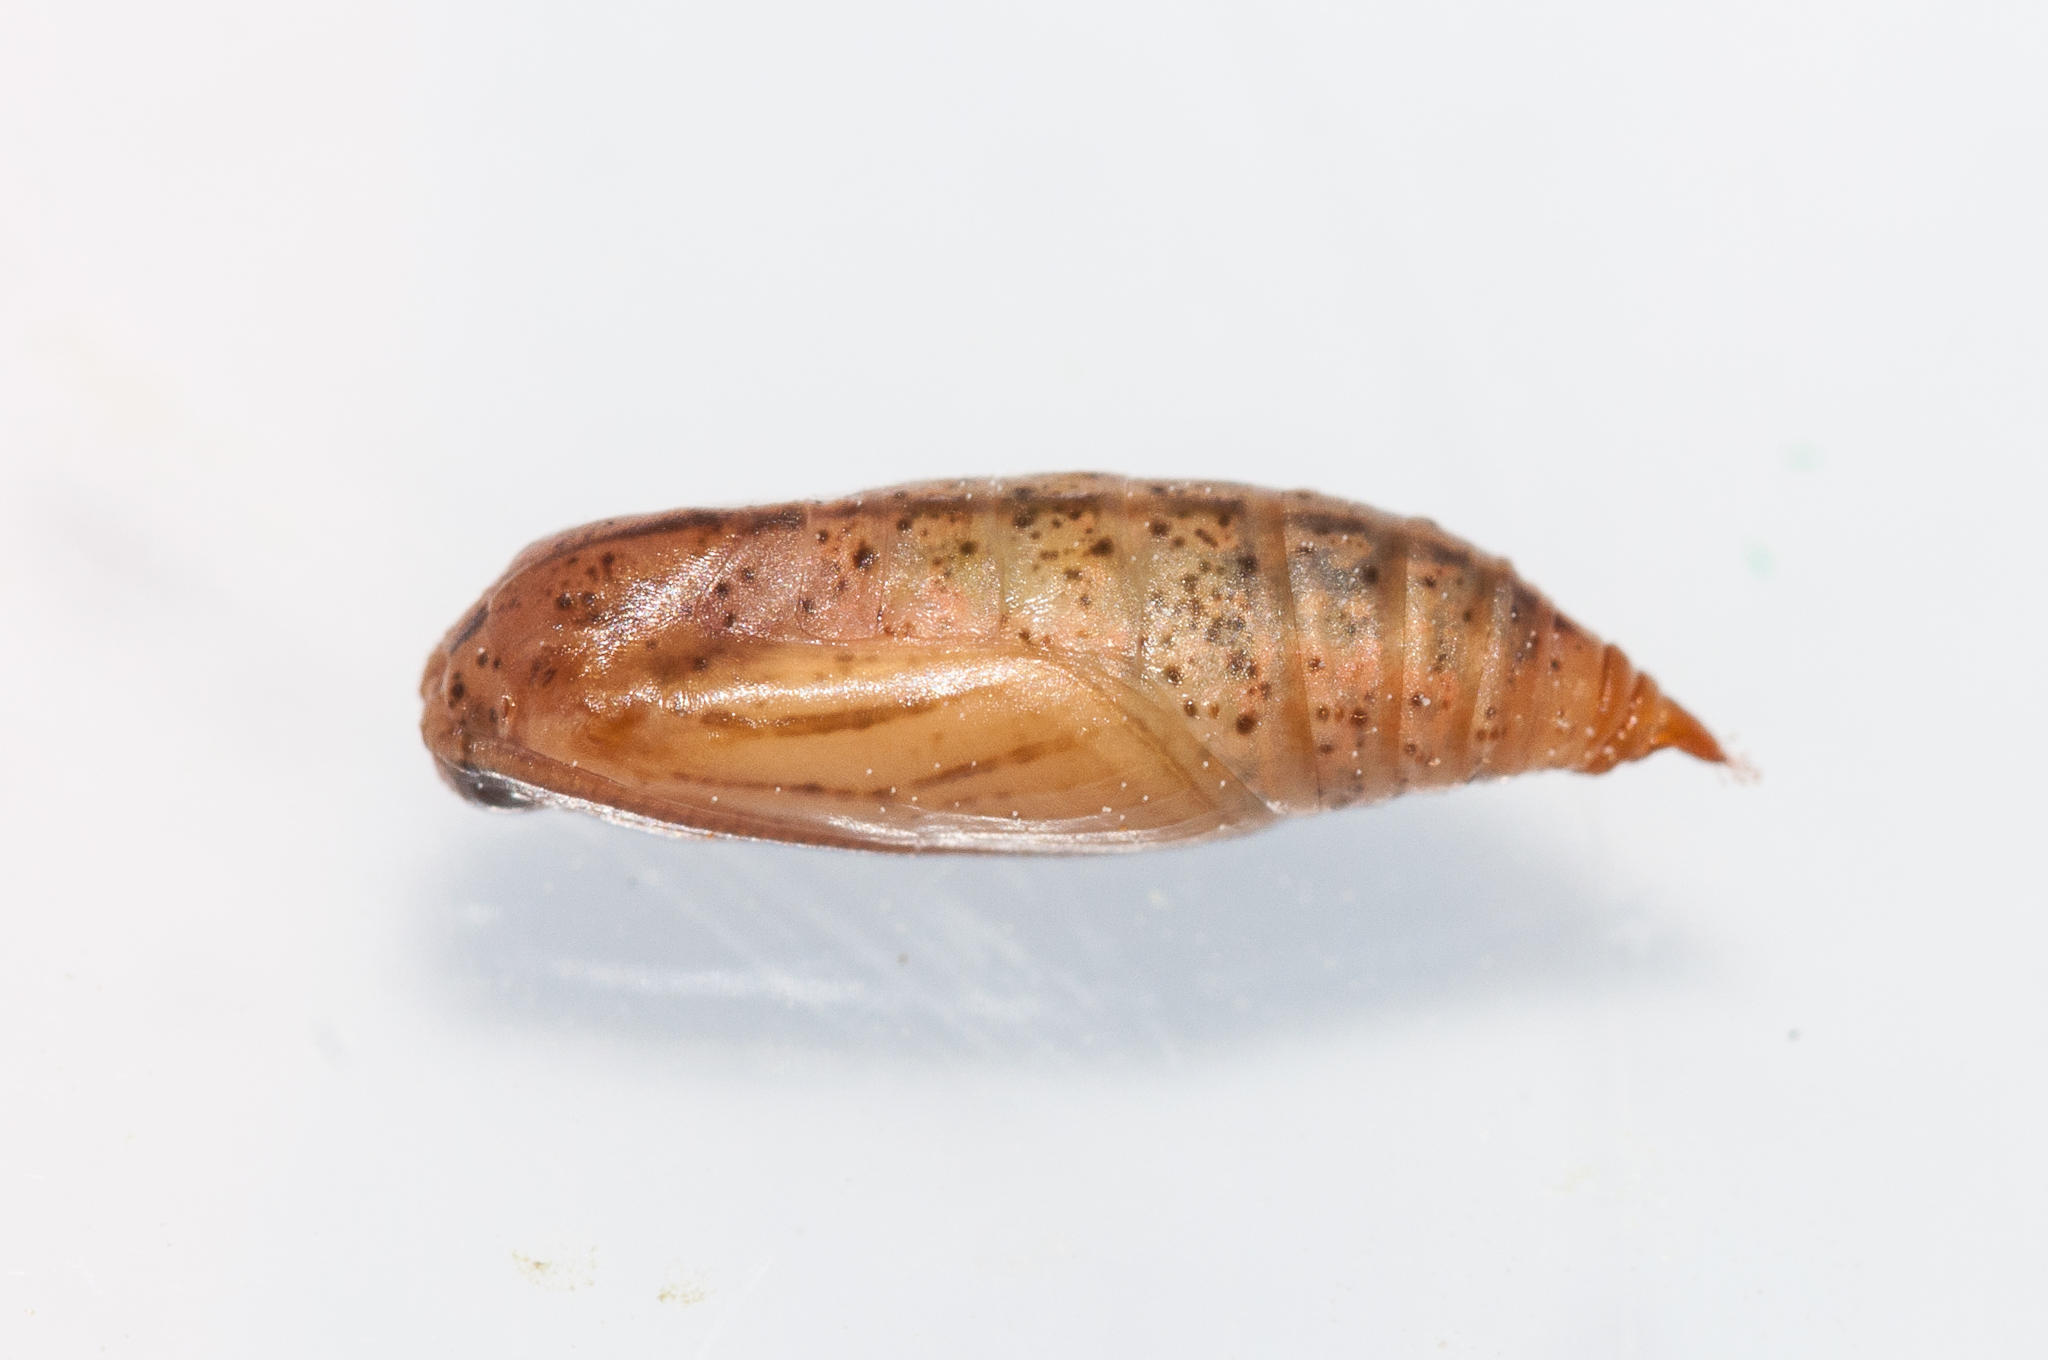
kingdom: Animalia
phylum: Arthropoda
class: Insecta
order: Lepidoptera
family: Geometridae
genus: Chlorocoma
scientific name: Chlorocoma didita
